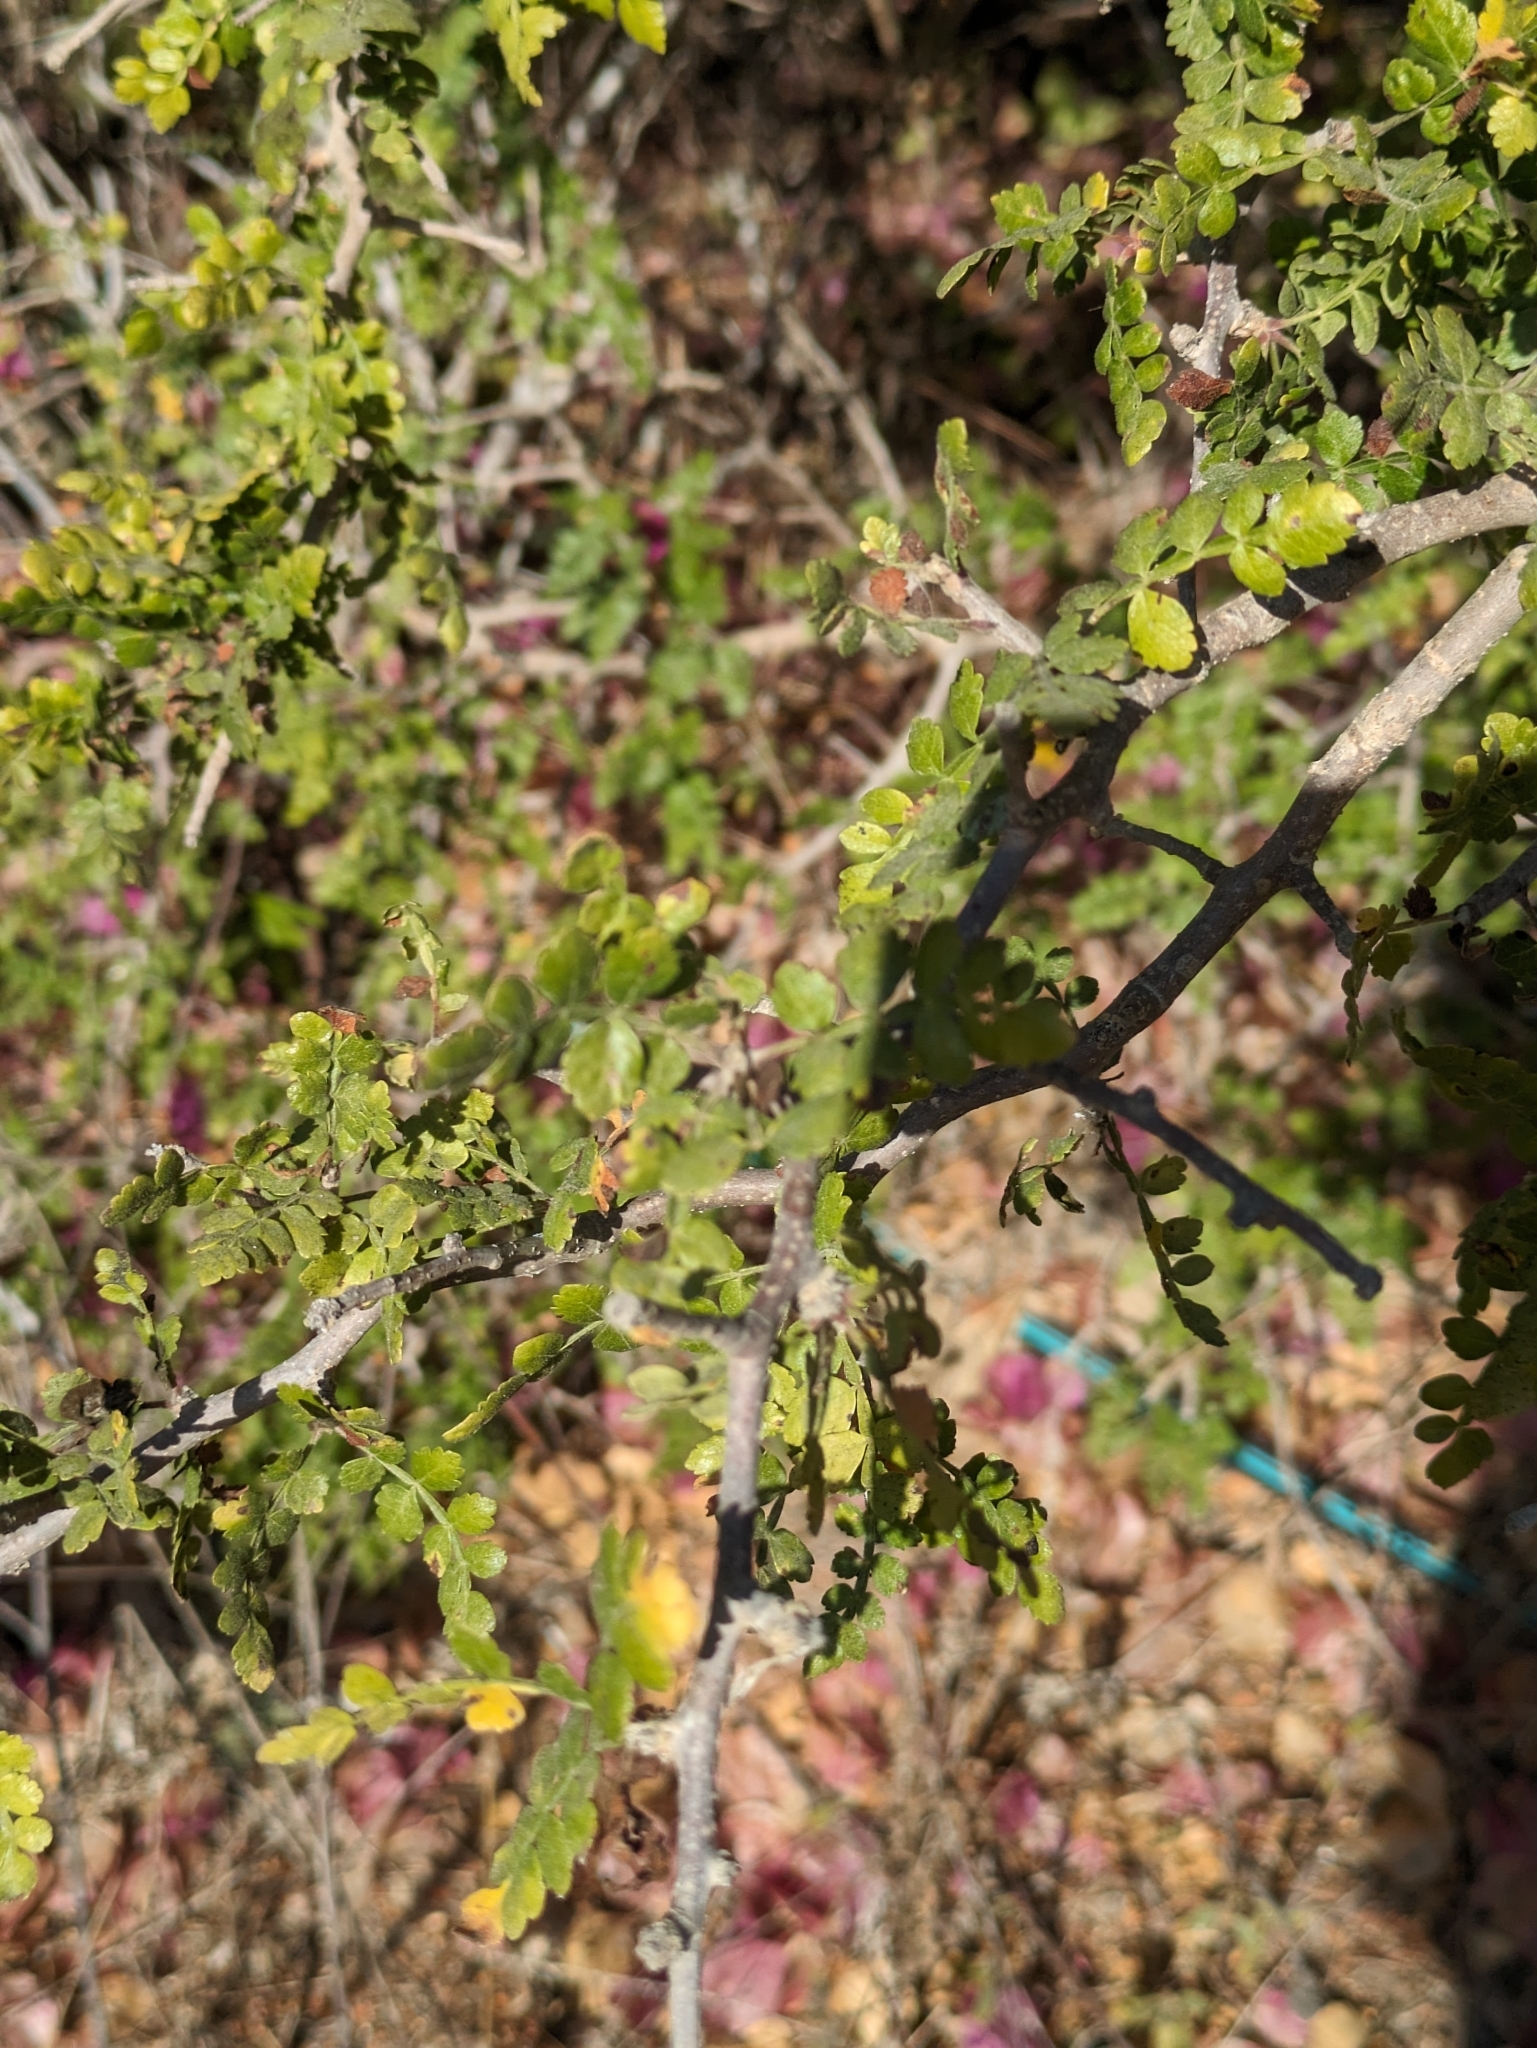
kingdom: Plantae
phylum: Tracheophyta
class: Magnoliopsida
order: Sapindales
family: Burseraceae
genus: Bursera
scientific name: Bursera littoralis
